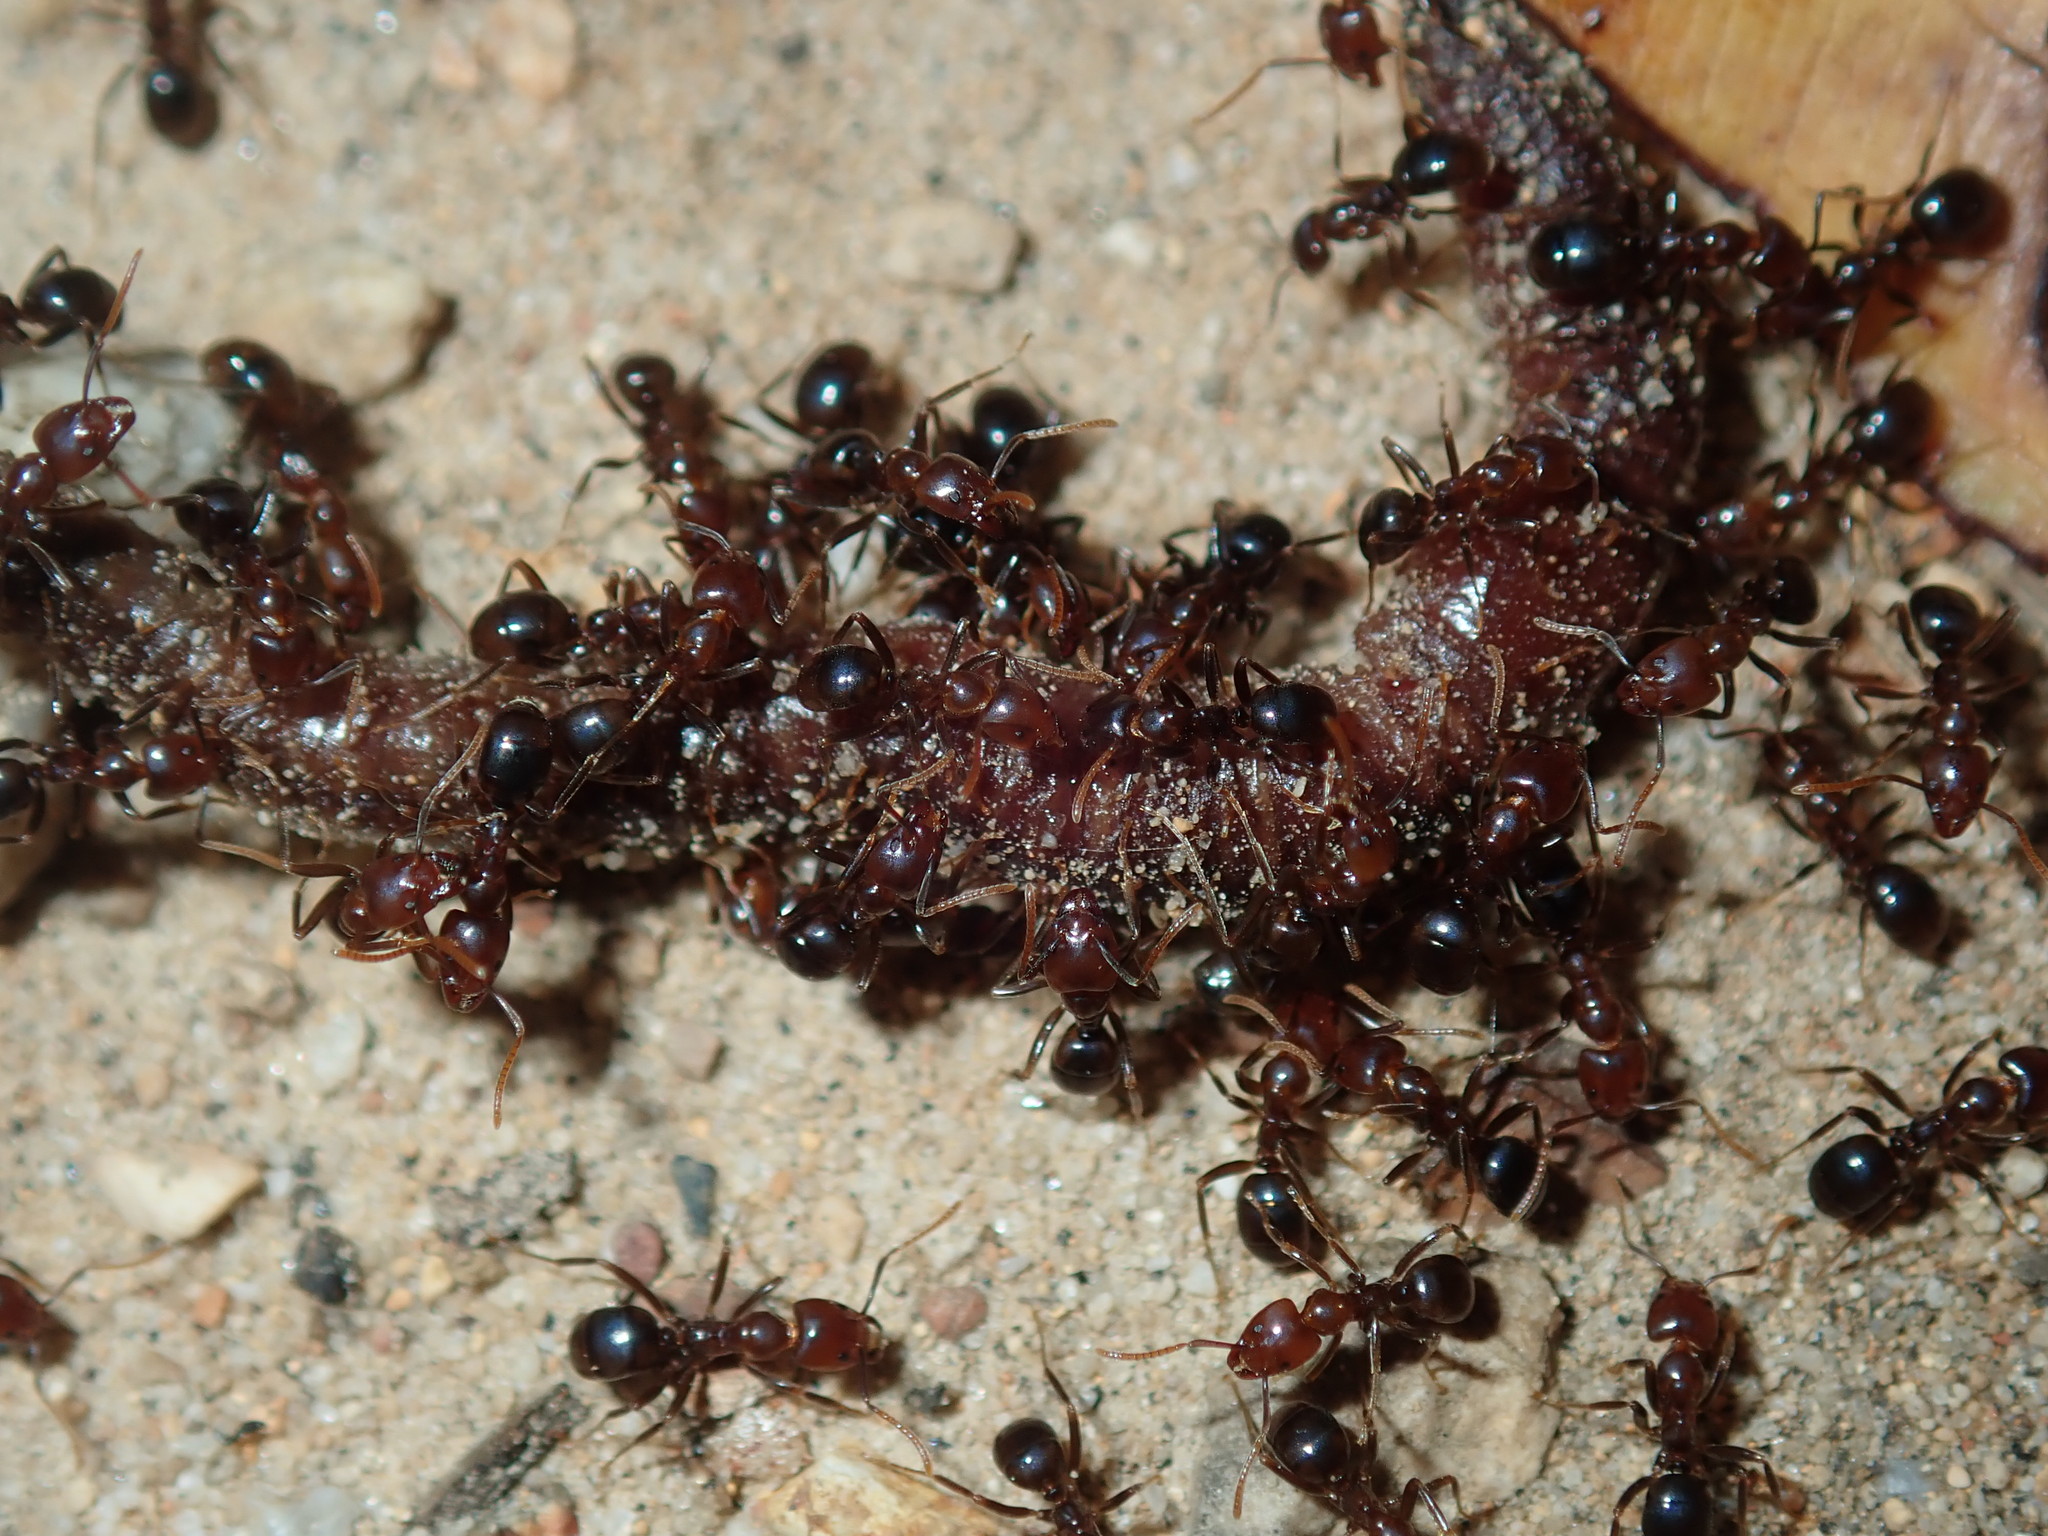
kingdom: Animalia
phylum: Arthropoda
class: Insecta
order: Hymenoptera
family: Formicidae
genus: Papyrius
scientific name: Papyrius nitidus
